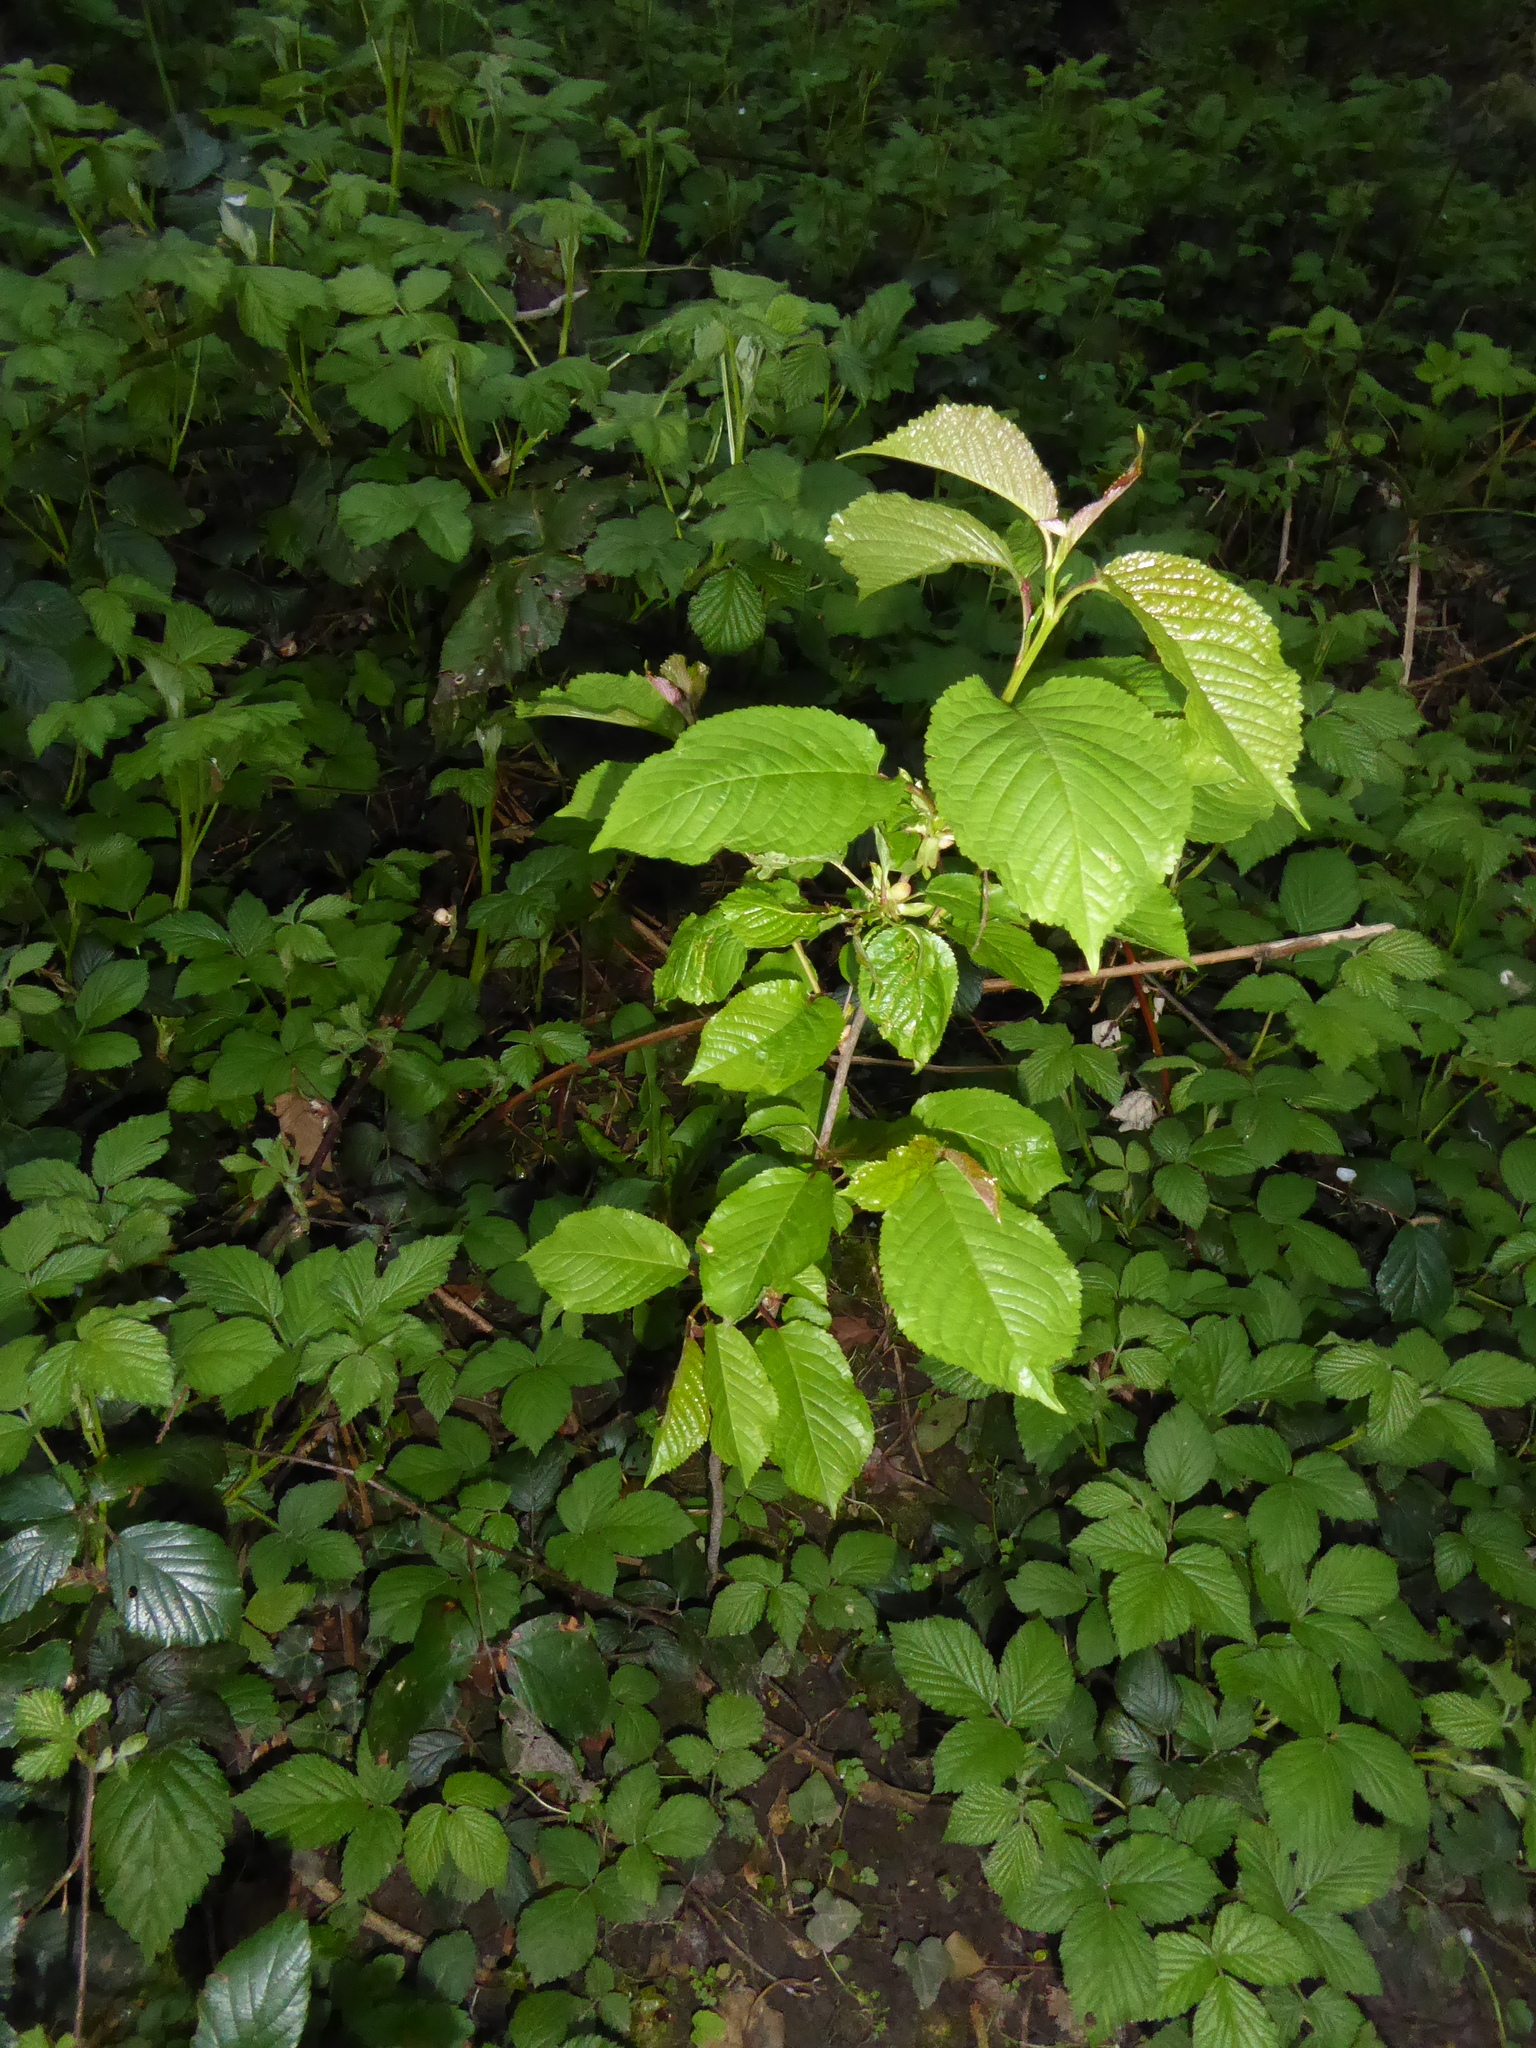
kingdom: Plantae
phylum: Tracheophyta
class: Magnoliopsida
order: Rosales
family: Rosaceae
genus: Prunus
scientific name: Prunus avium
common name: Sweet cherry
